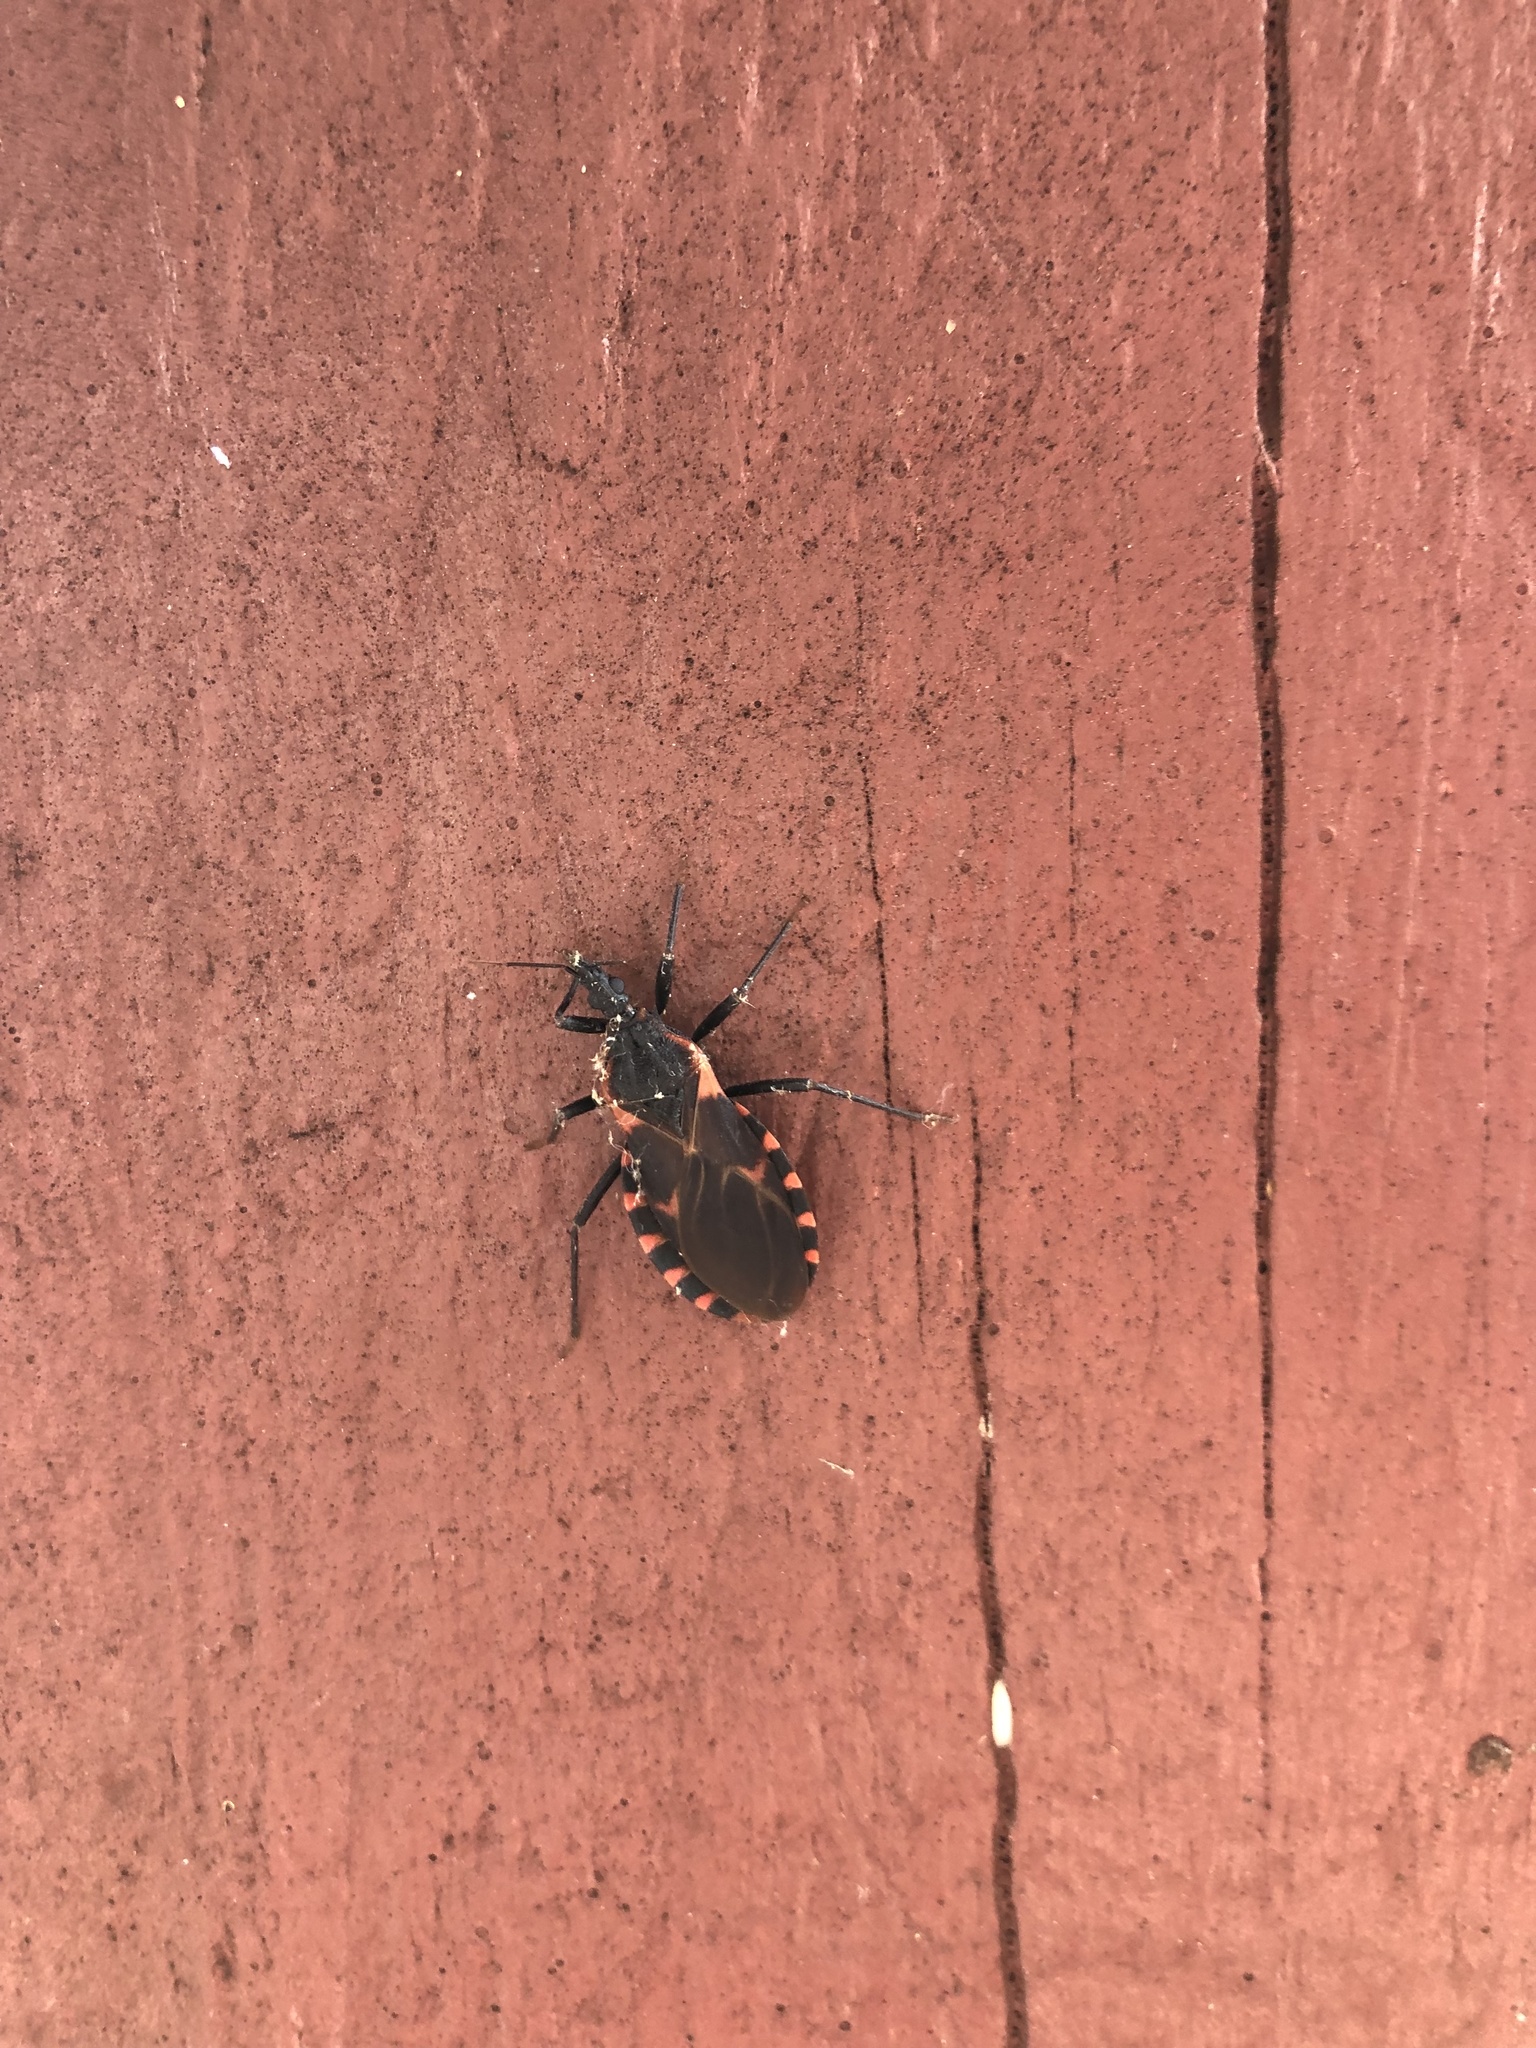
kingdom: Animalia
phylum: Arthropoda
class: Insecta
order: Hemiptera
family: Reduviidae
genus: Triatoma
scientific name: Triatoma sanguisuga
